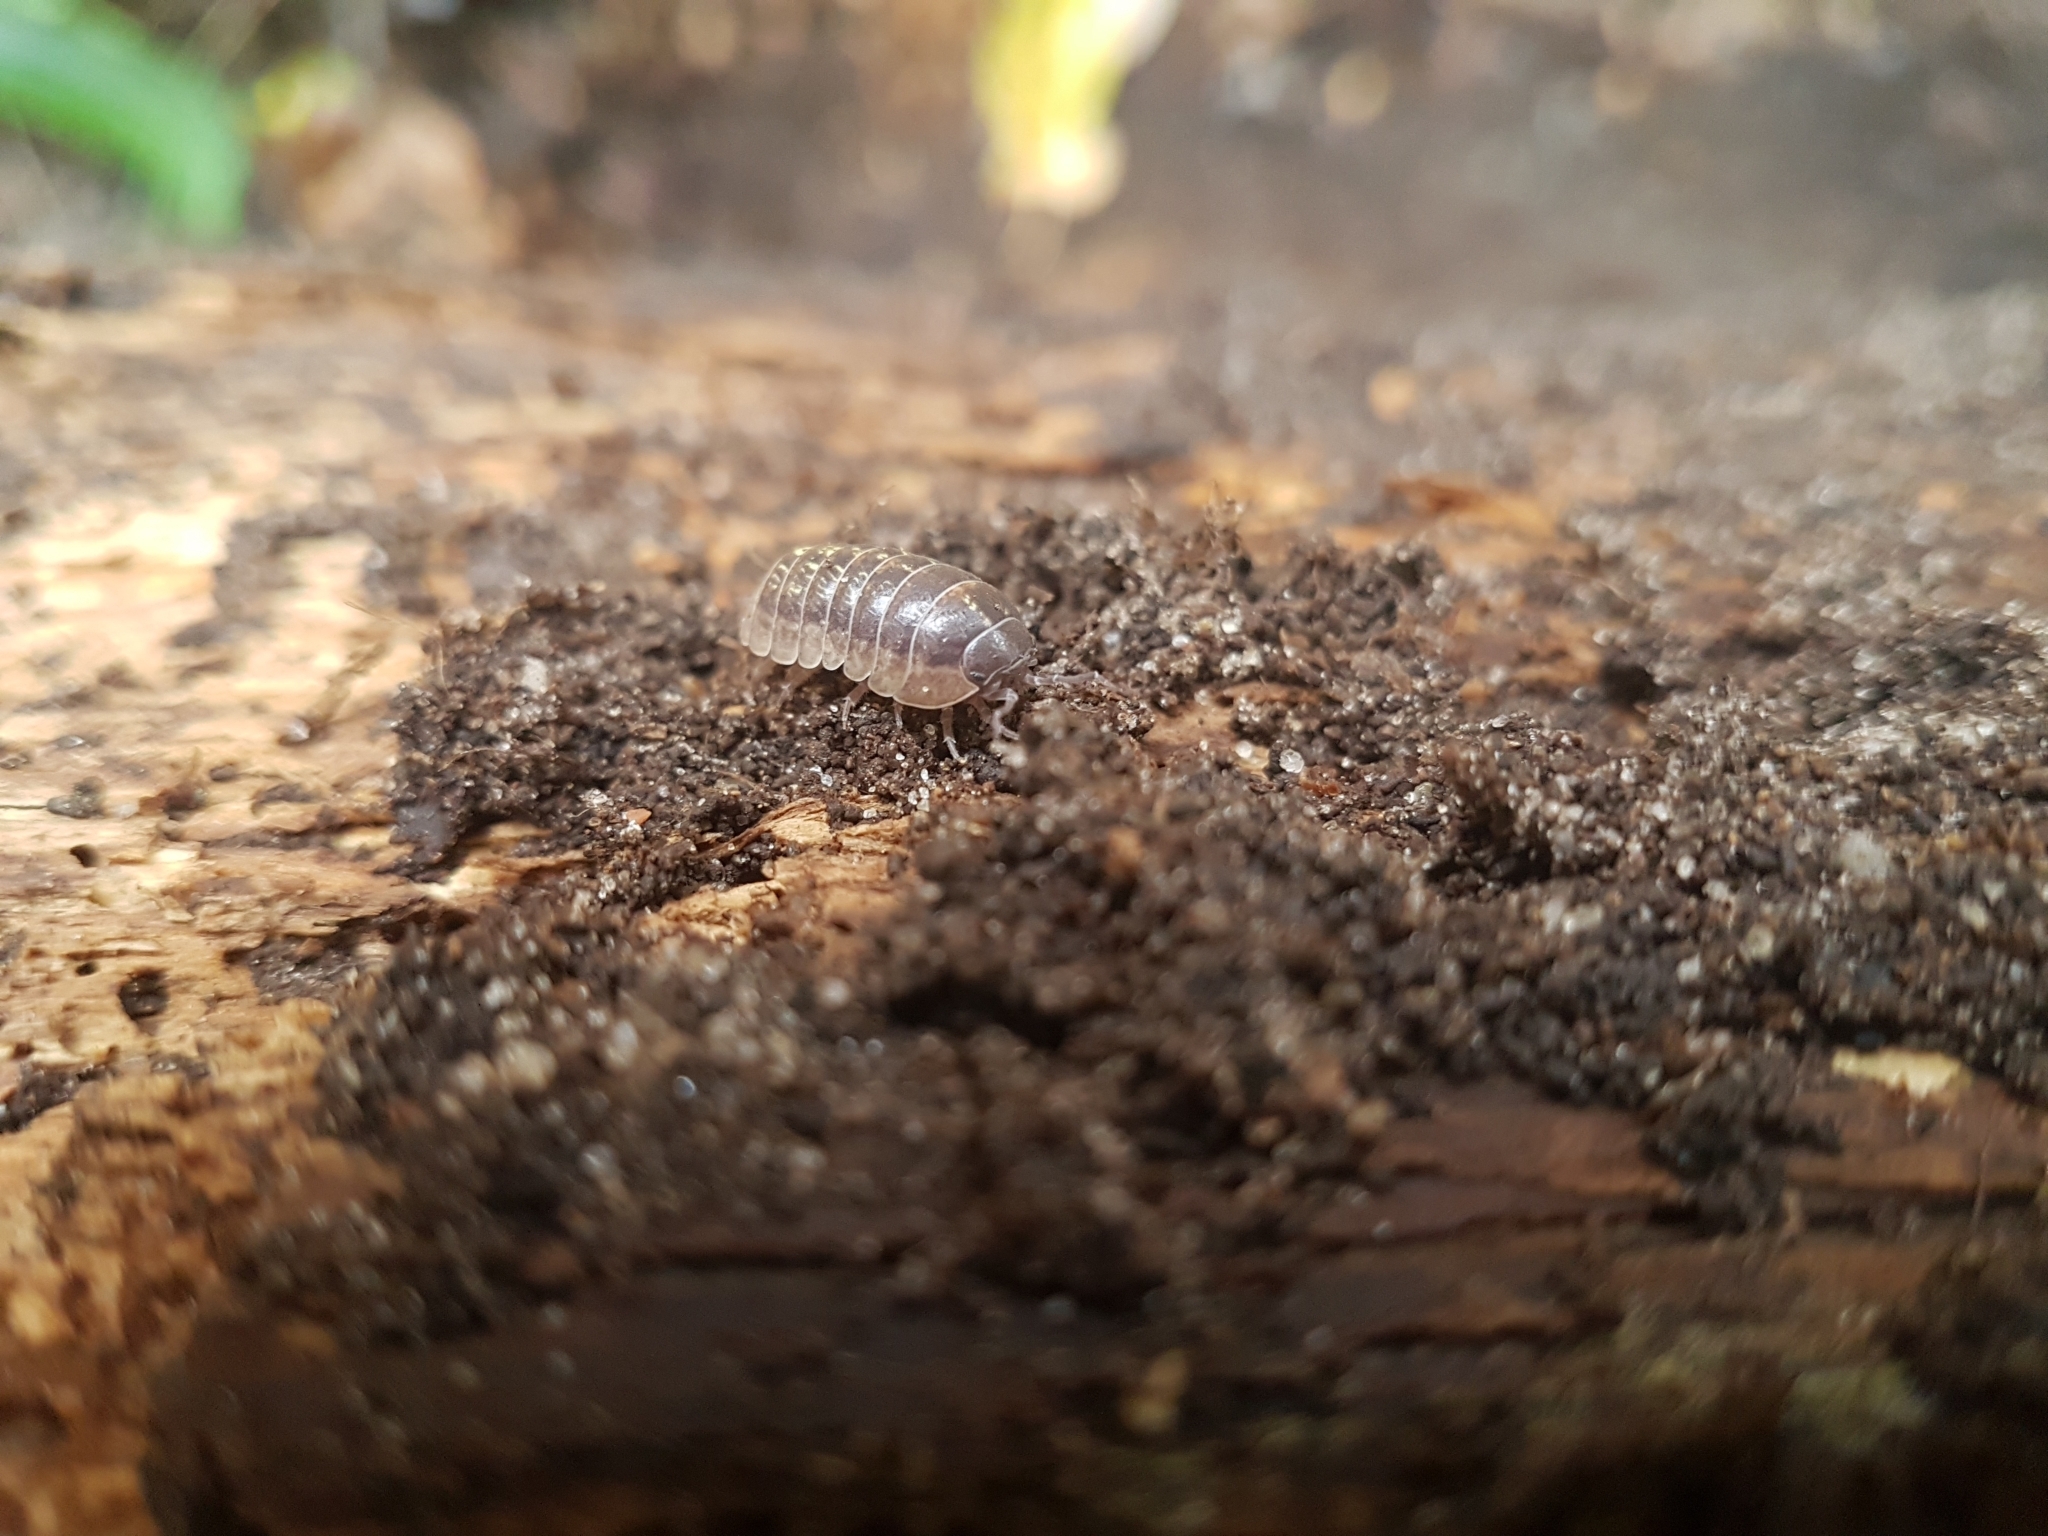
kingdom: Animalia
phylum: Arthropoda
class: Malacostraca
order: Isopoda
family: Armadillidiidae
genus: Armadillidium
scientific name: Armadillidium vulgare
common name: Common pill woodlouse
